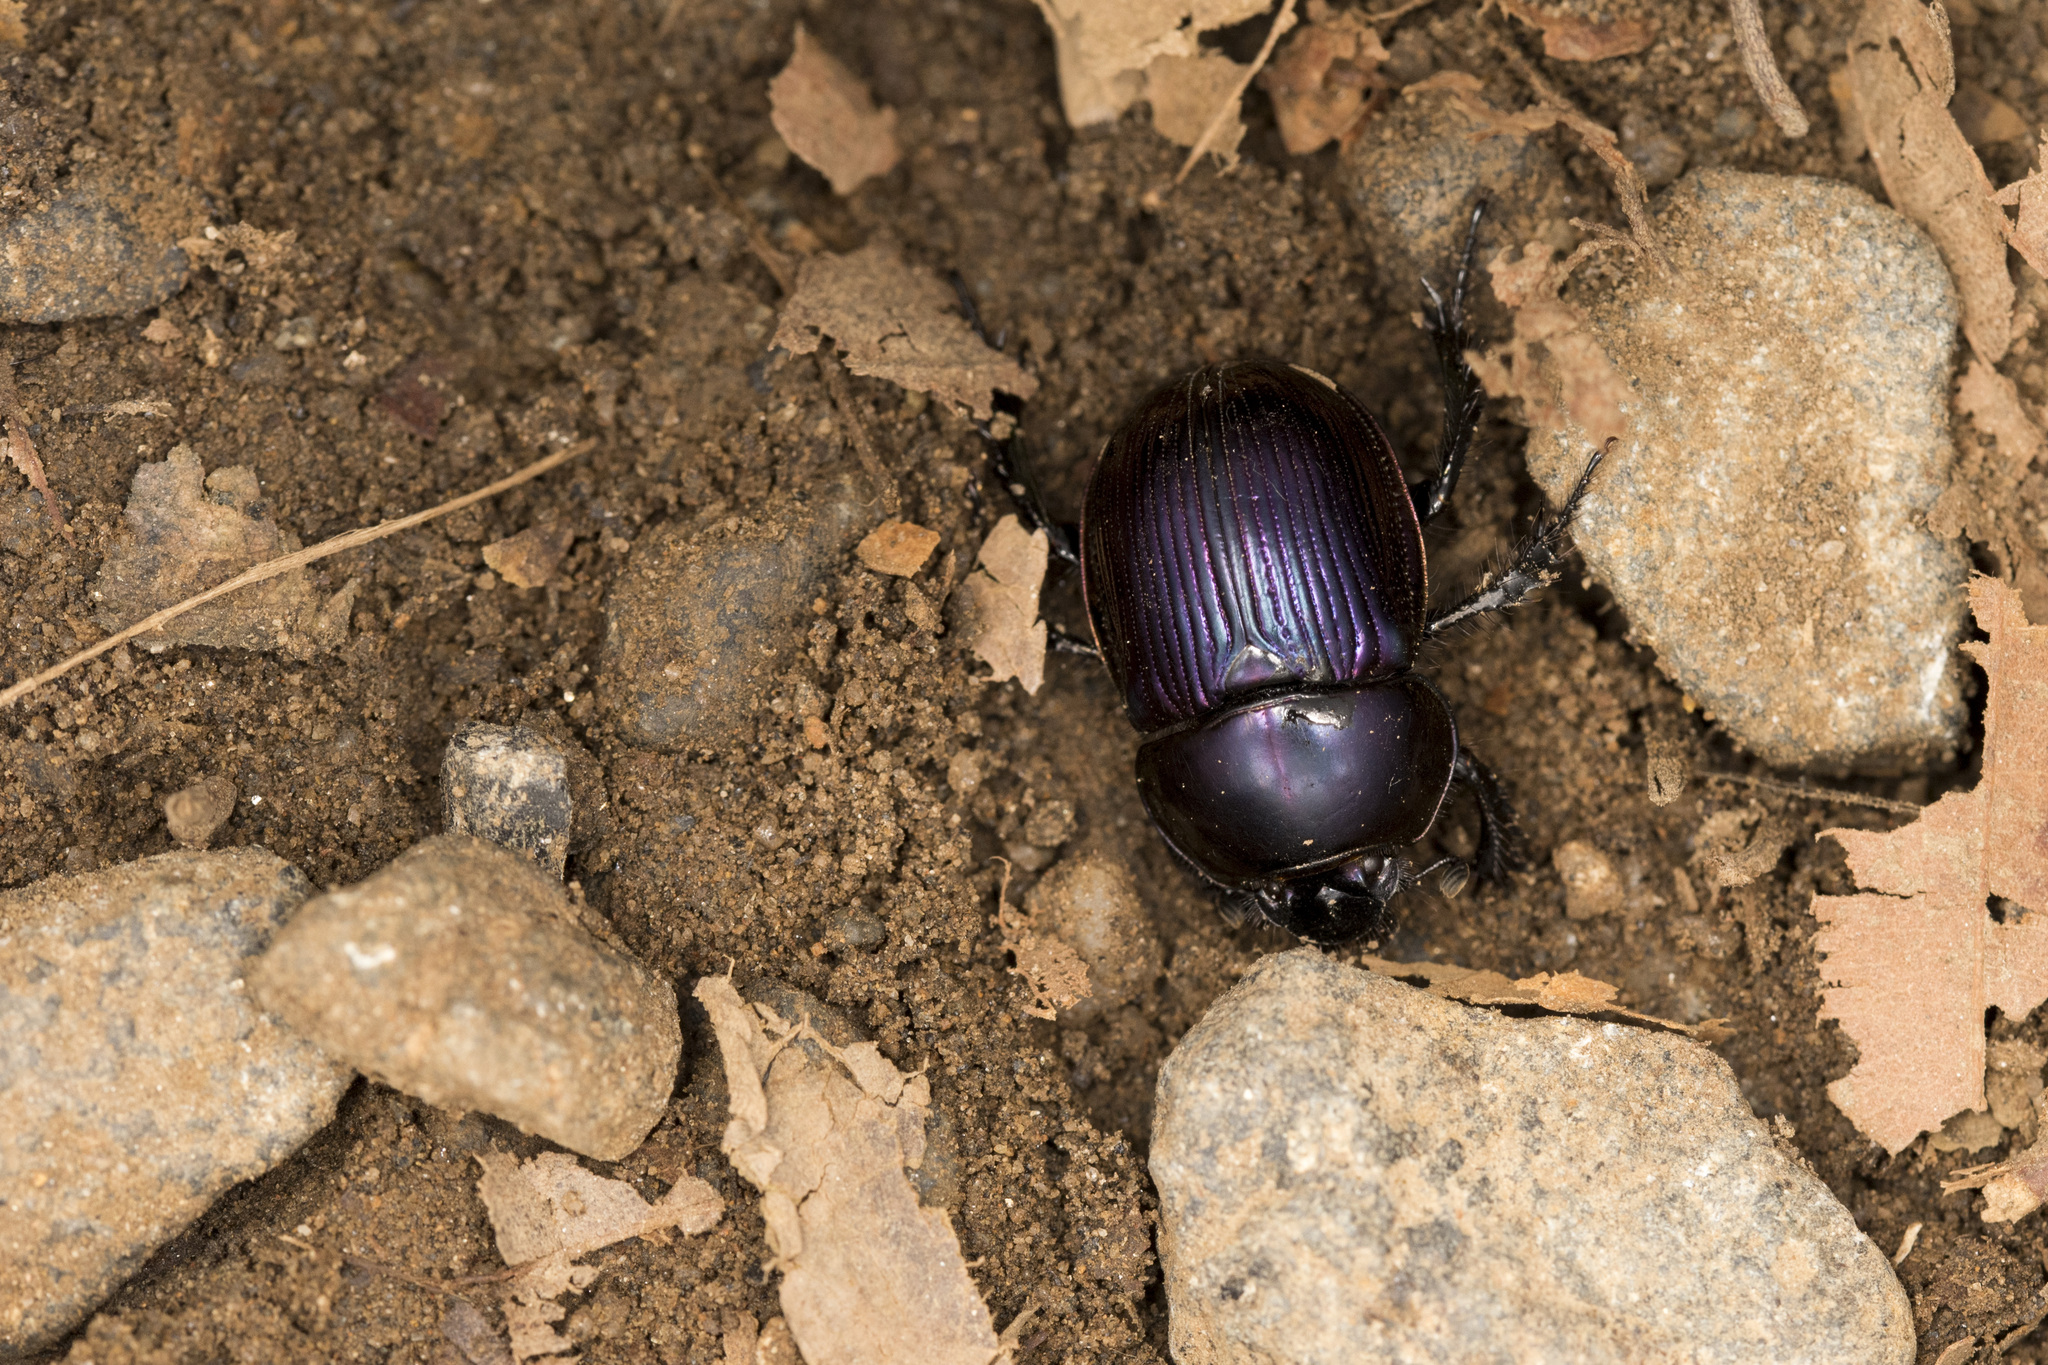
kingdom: Animalia
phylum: Arthropoda
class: Insecta
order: Coleoptera
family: Geotrupidae
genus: Phelotrupes
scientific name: Phelotrupes auratus
